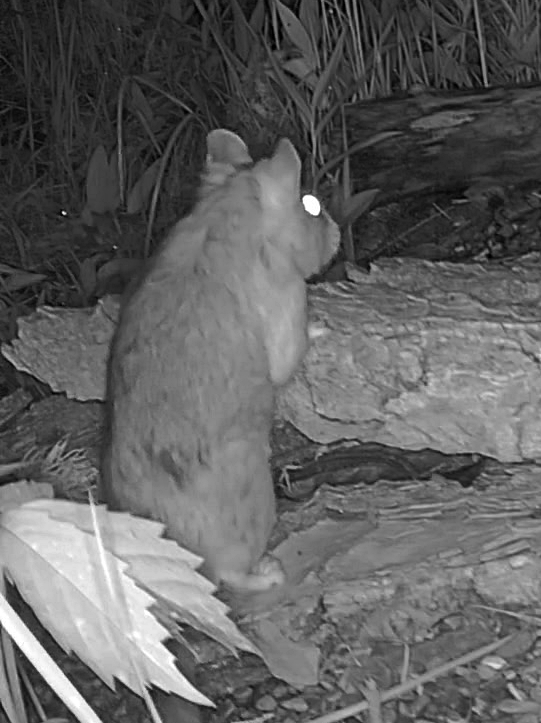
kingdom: Animalia
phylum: Chordata
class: Mammalia
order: Rodentia
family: Cricetidae
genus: Neotoma
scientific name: Neotoma cinerea
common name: Bushy-tailed woodrat
